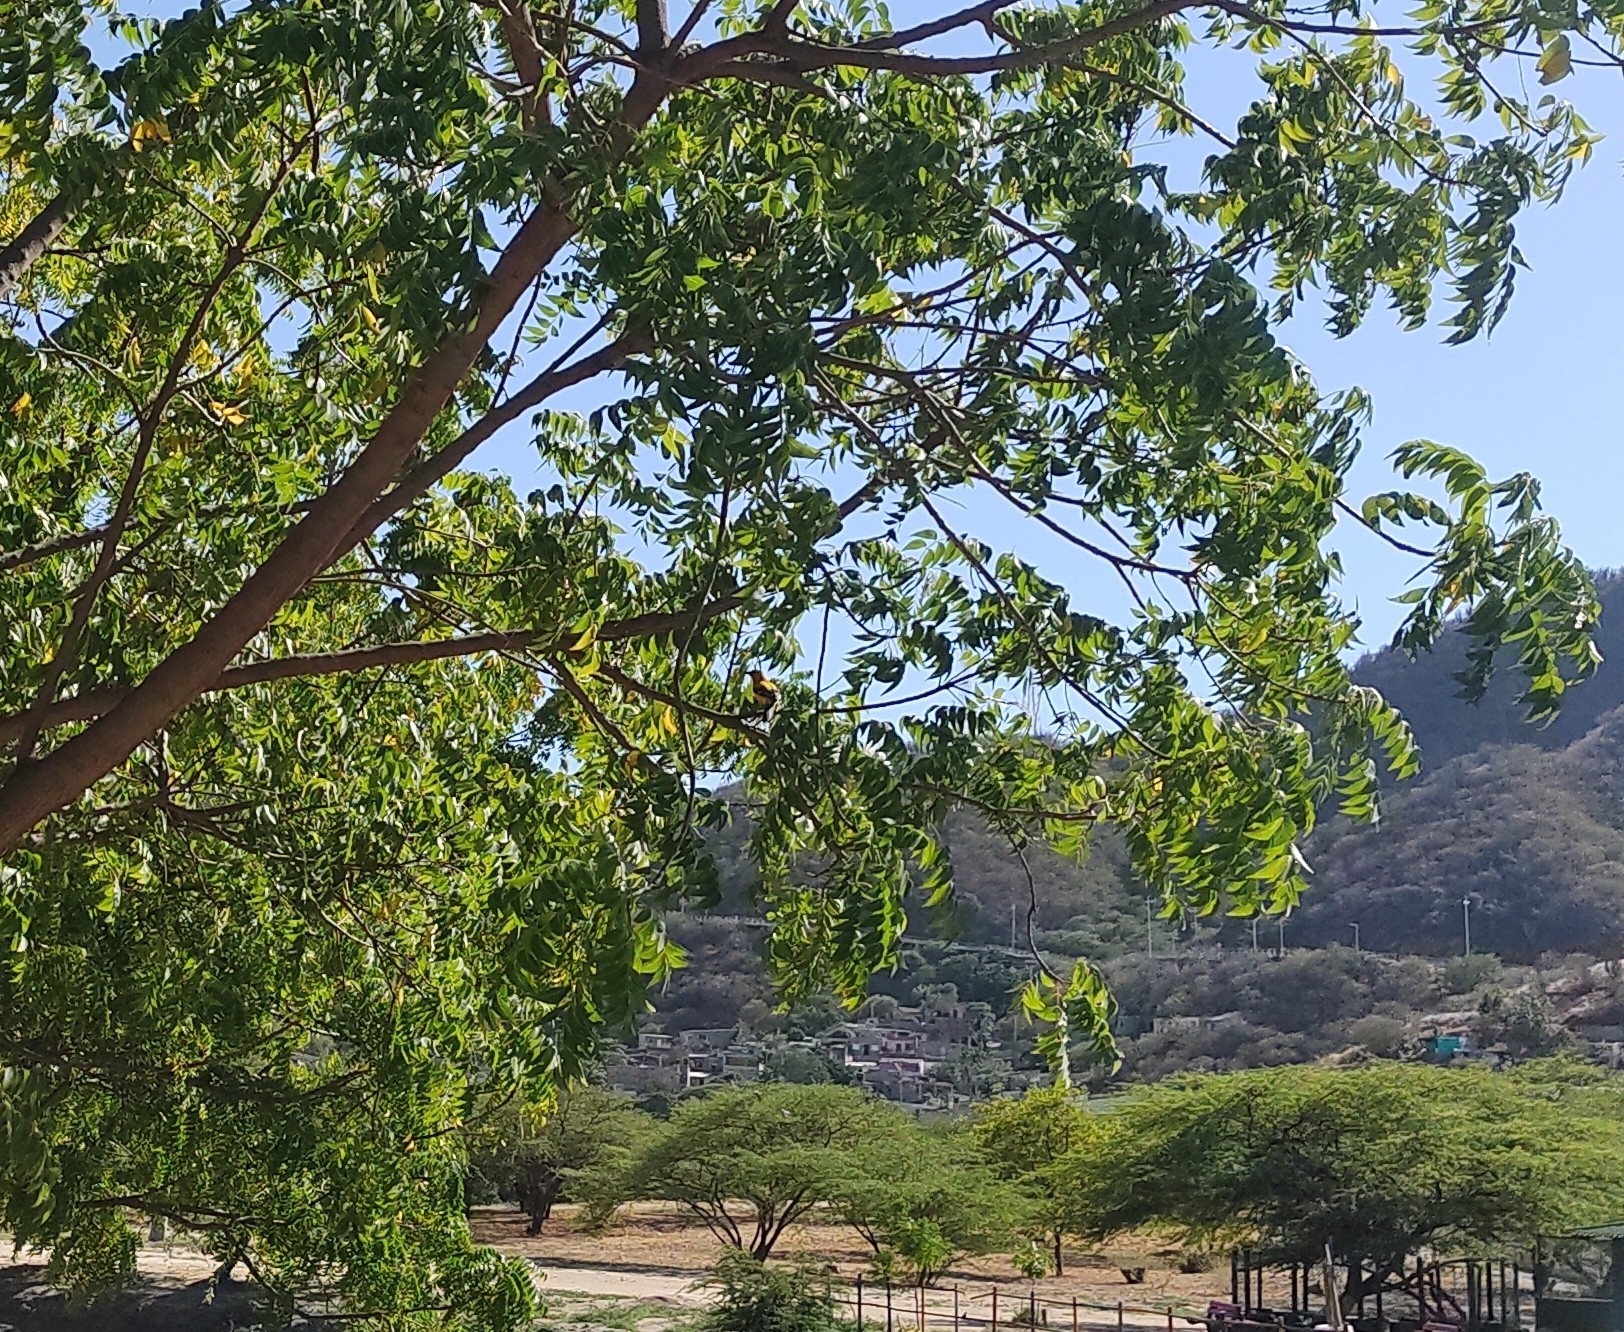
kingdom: Animalia
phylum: Chordata
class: Aves
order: Passeriformes
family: Icteridae
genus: Icterus
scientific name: Icterus nigrogularis
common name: Yellow oriole
